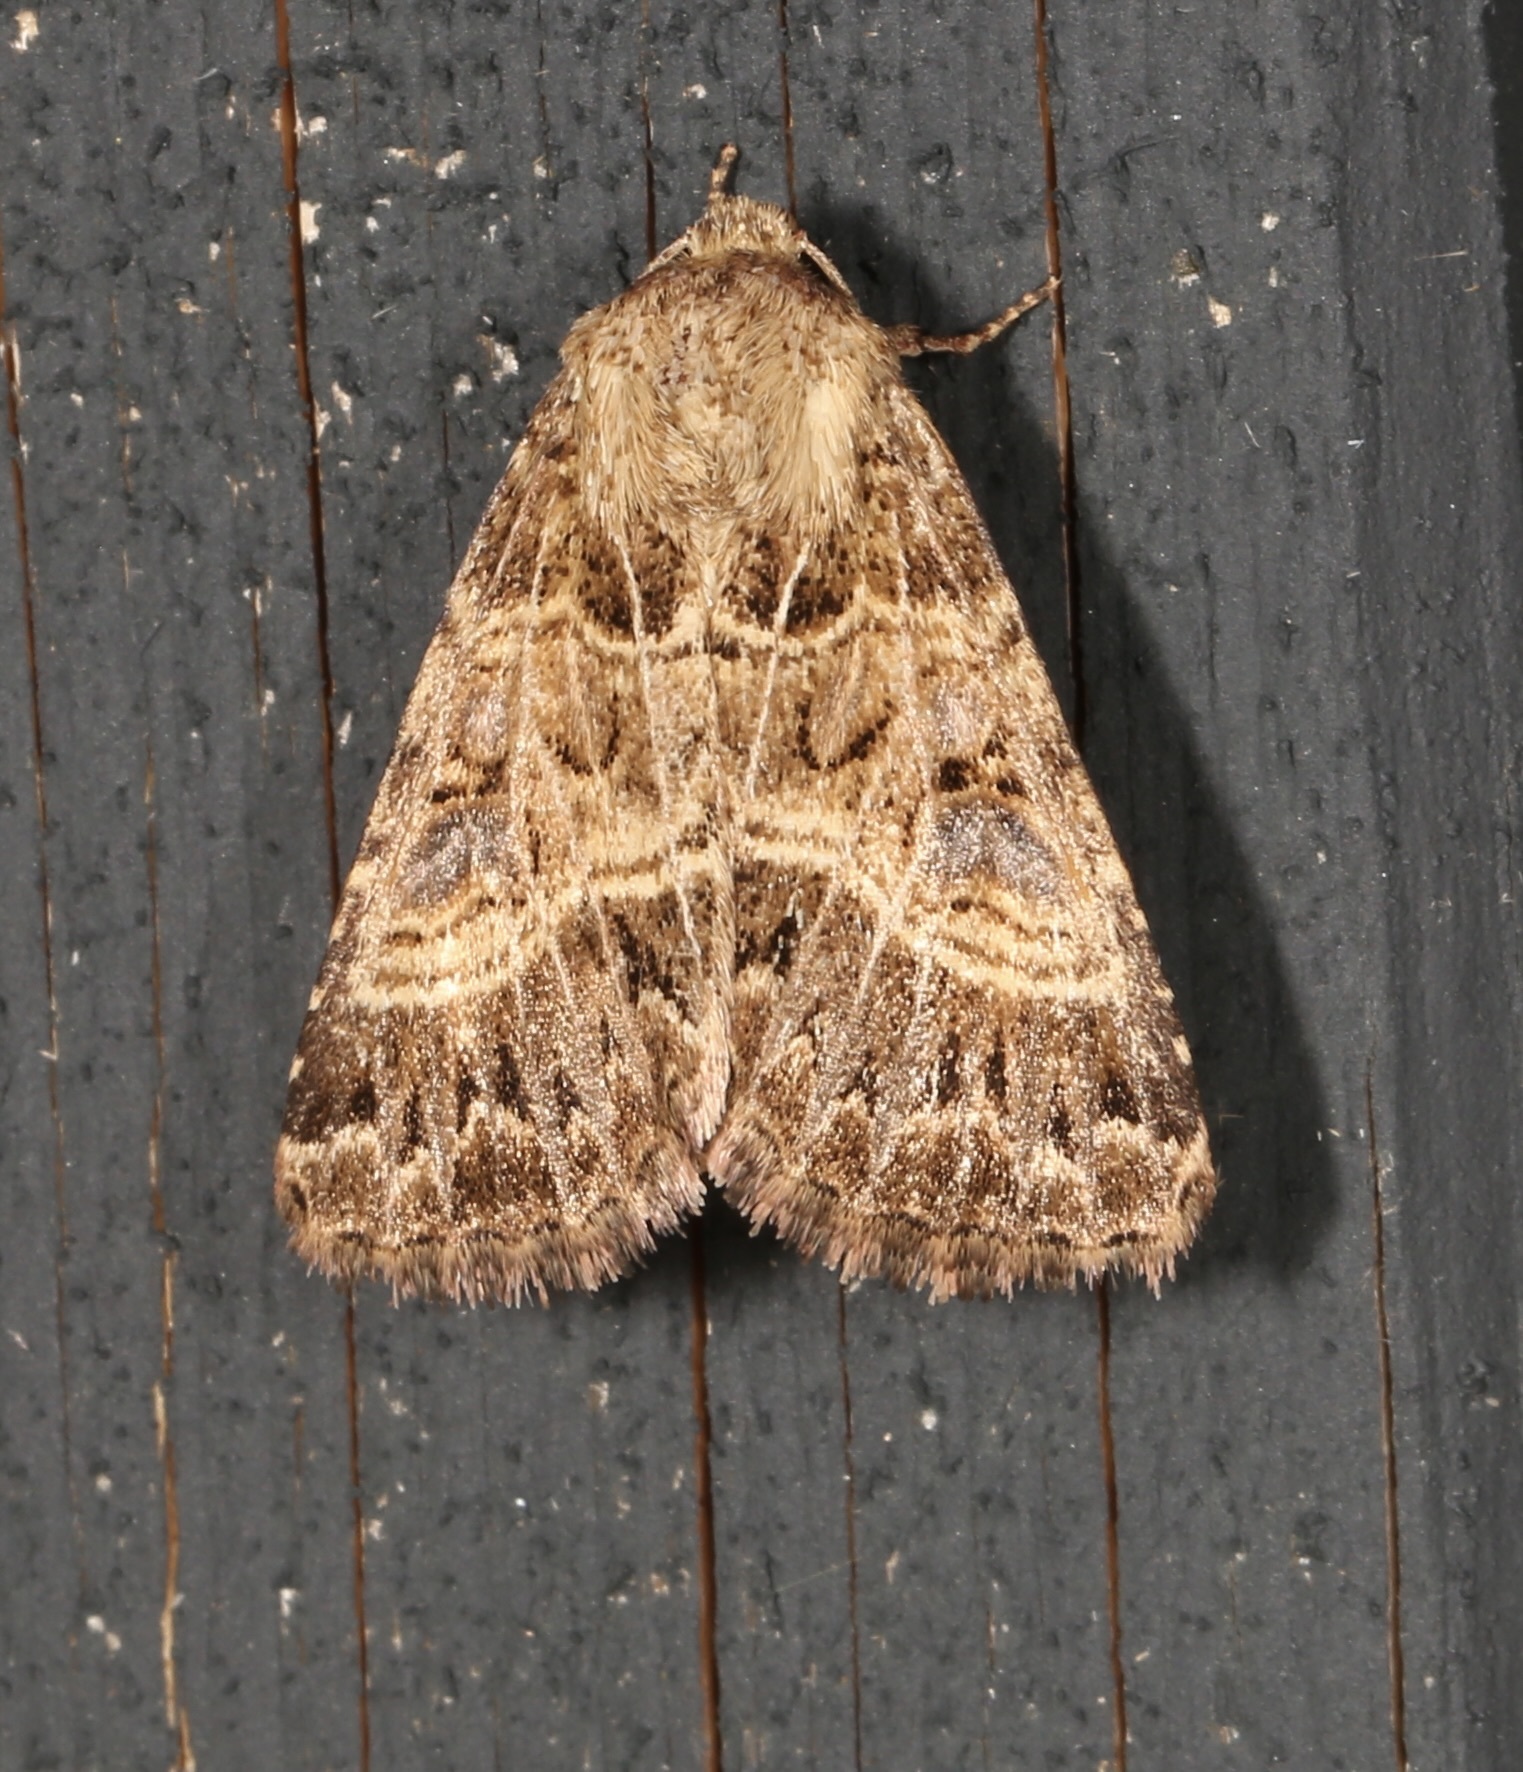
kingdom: Animalia
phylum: Arthropoda
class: Insecta
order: Lepidoptera
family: Noctuidae
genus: Schinia
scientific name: Schinia mexicana
